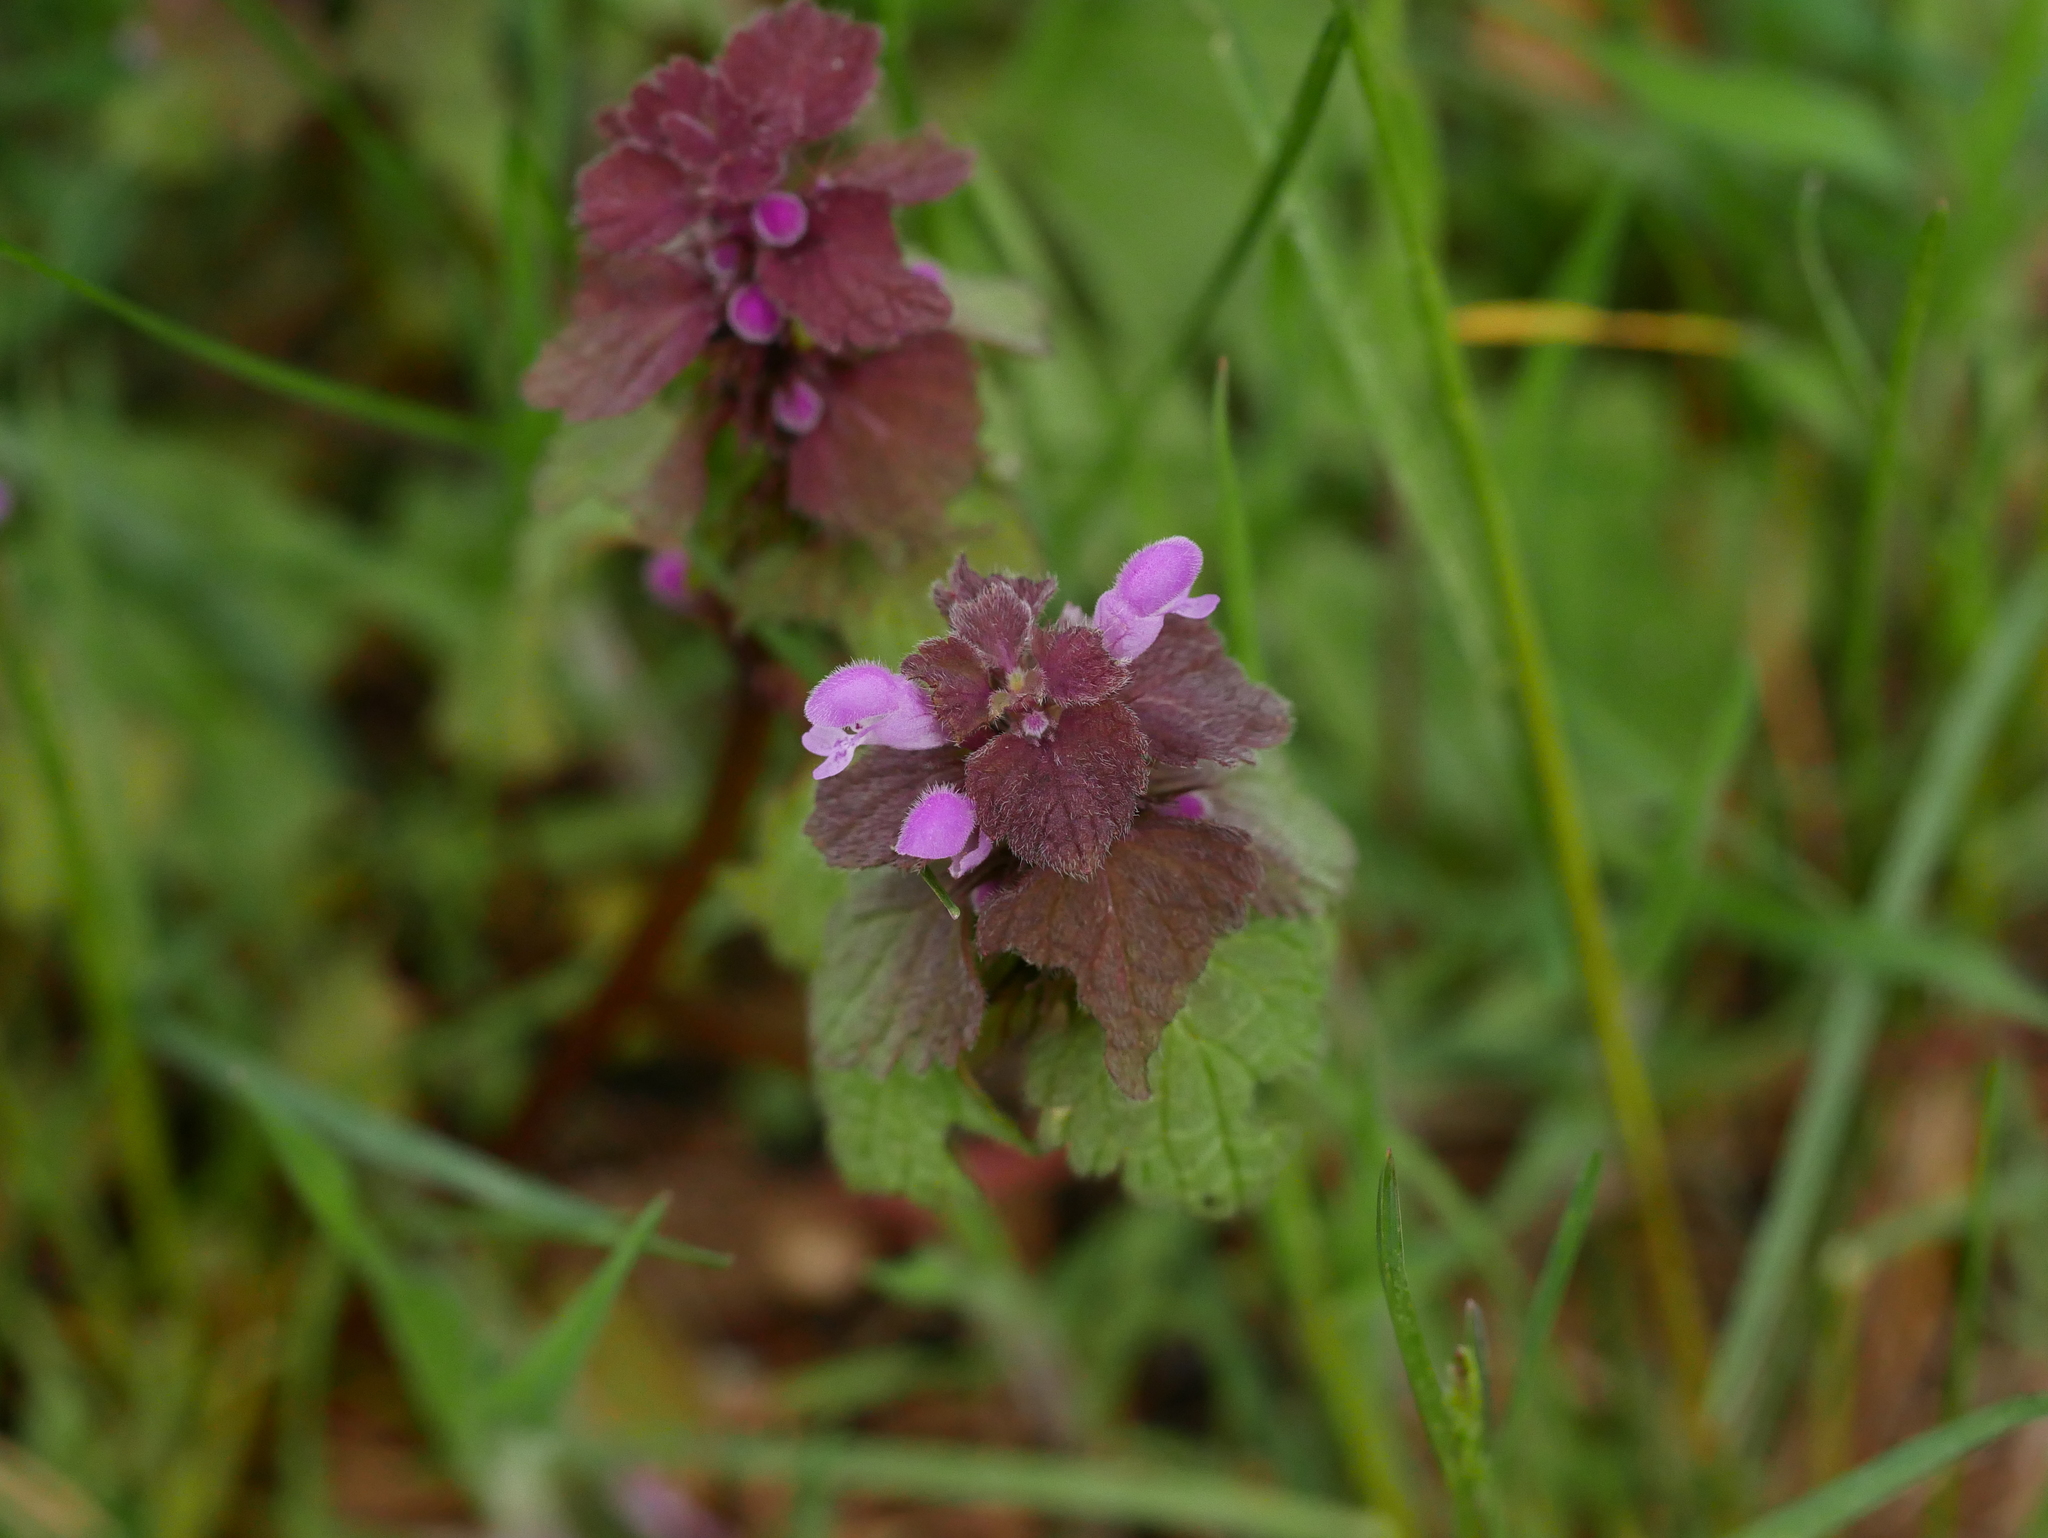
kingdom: Plantae
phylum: Tracheophyta
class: Magnoliopsida
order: Lamiales
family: Lamiaceae
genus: Lamium
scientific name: Lamium purpureum
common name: Red dead-nettle
